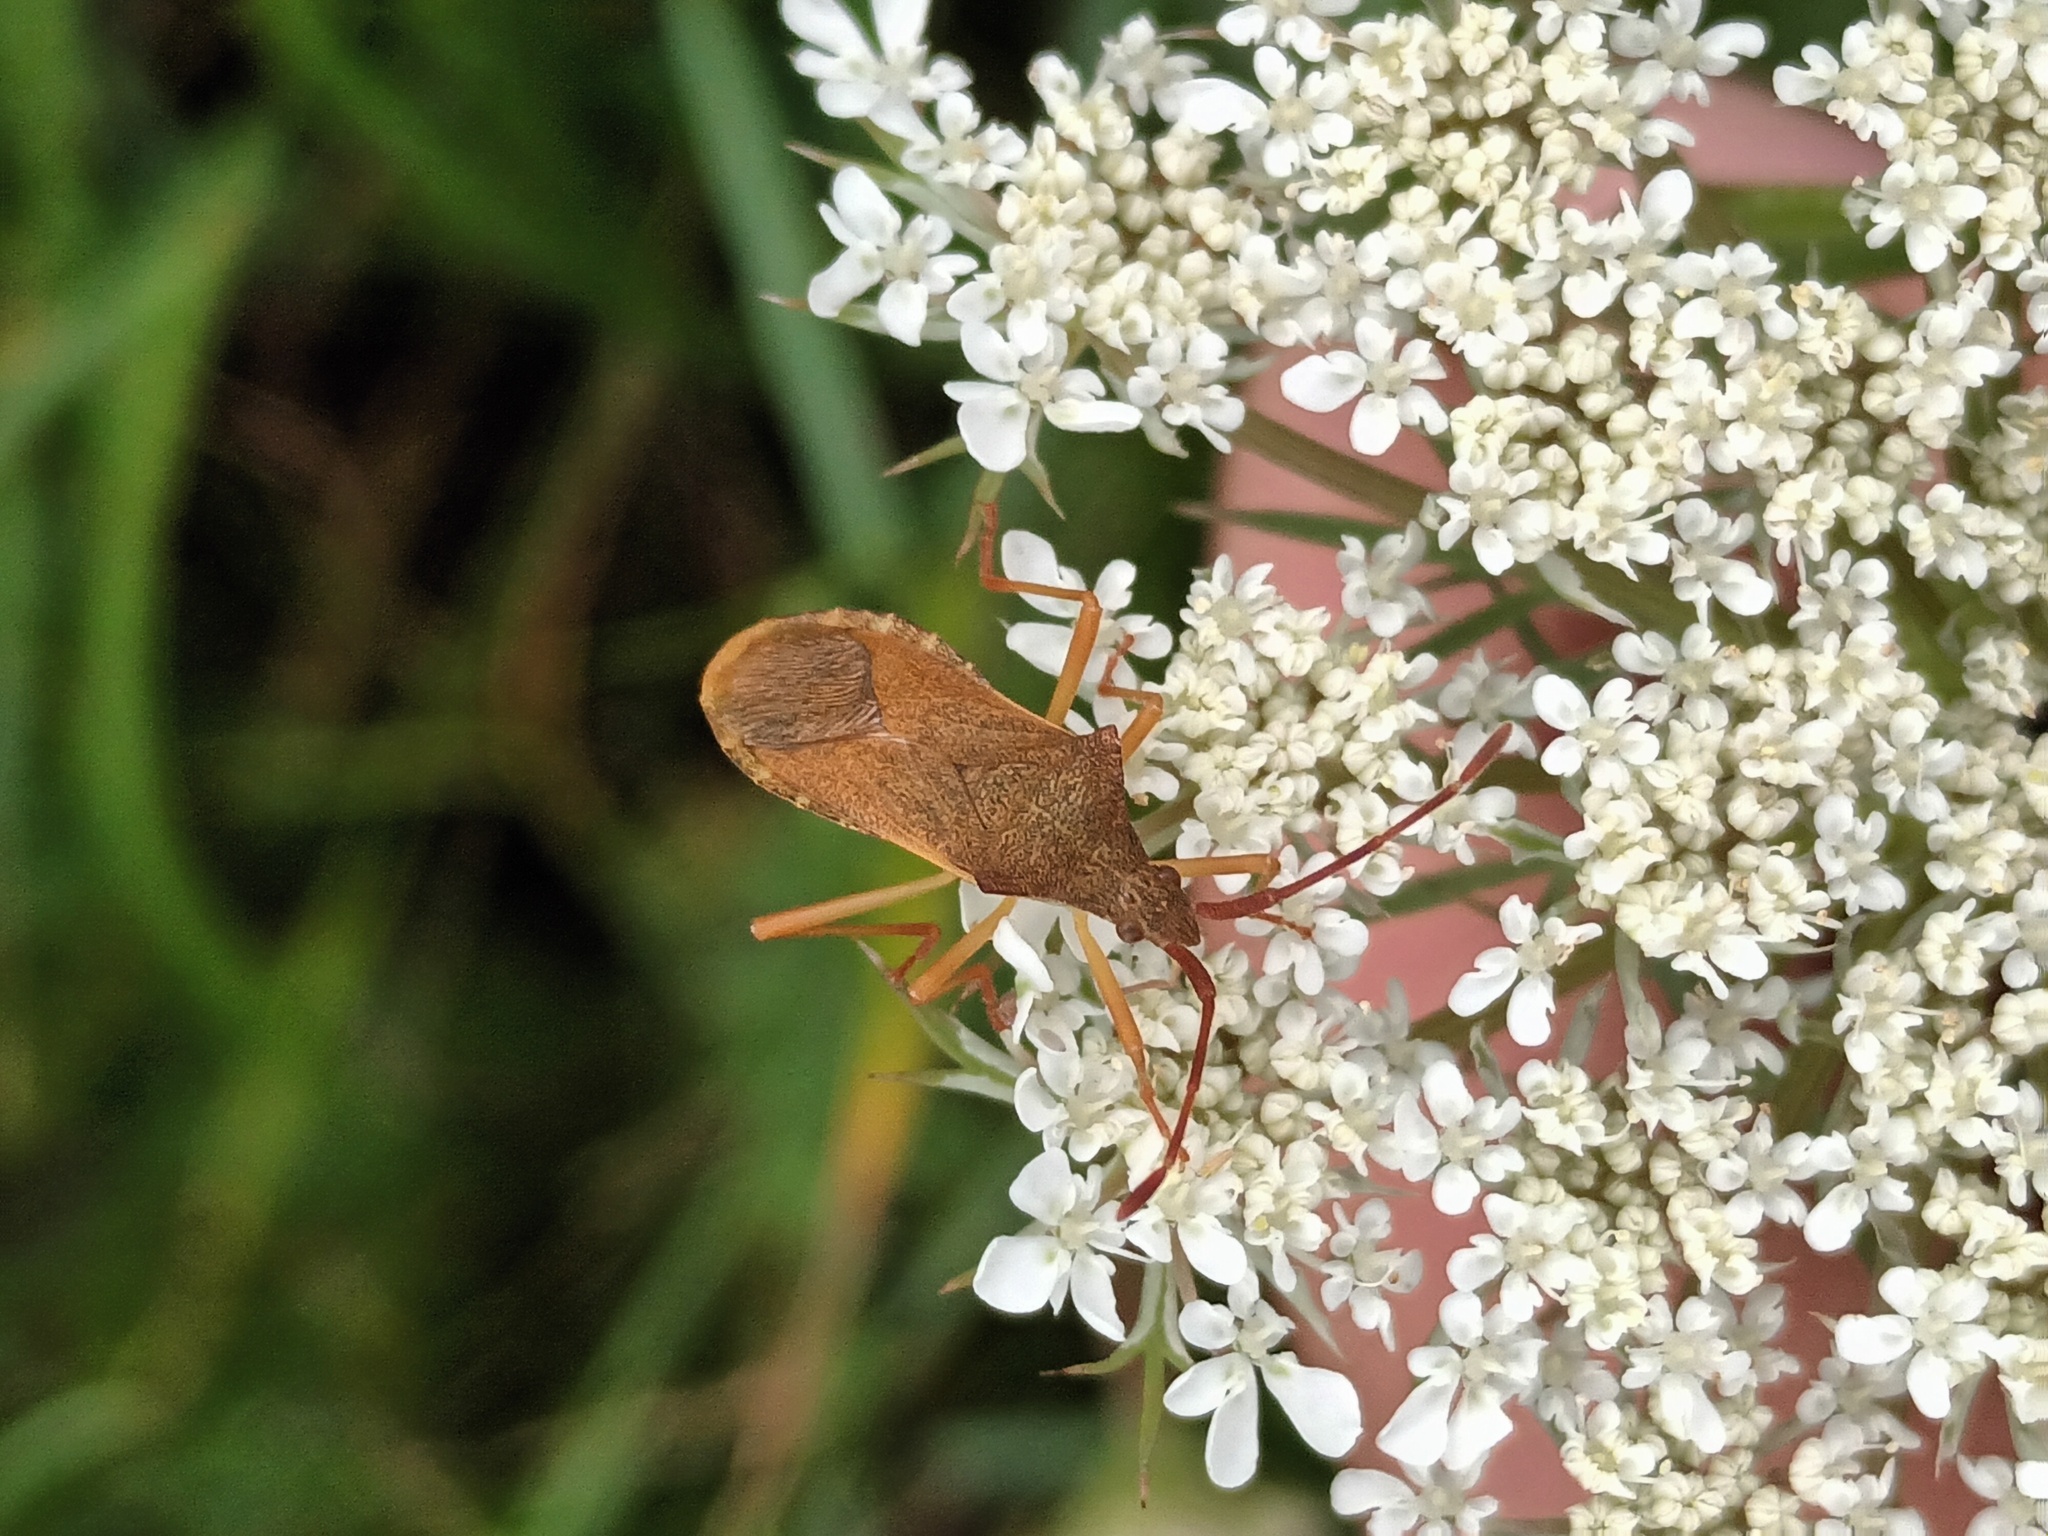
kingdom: Animalia
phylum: Arthropoda
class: Insecta
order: Hemiptera
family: Coreidae
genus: Gonocerus
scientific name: Gonocerus acuteangulatus
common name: Box bug
